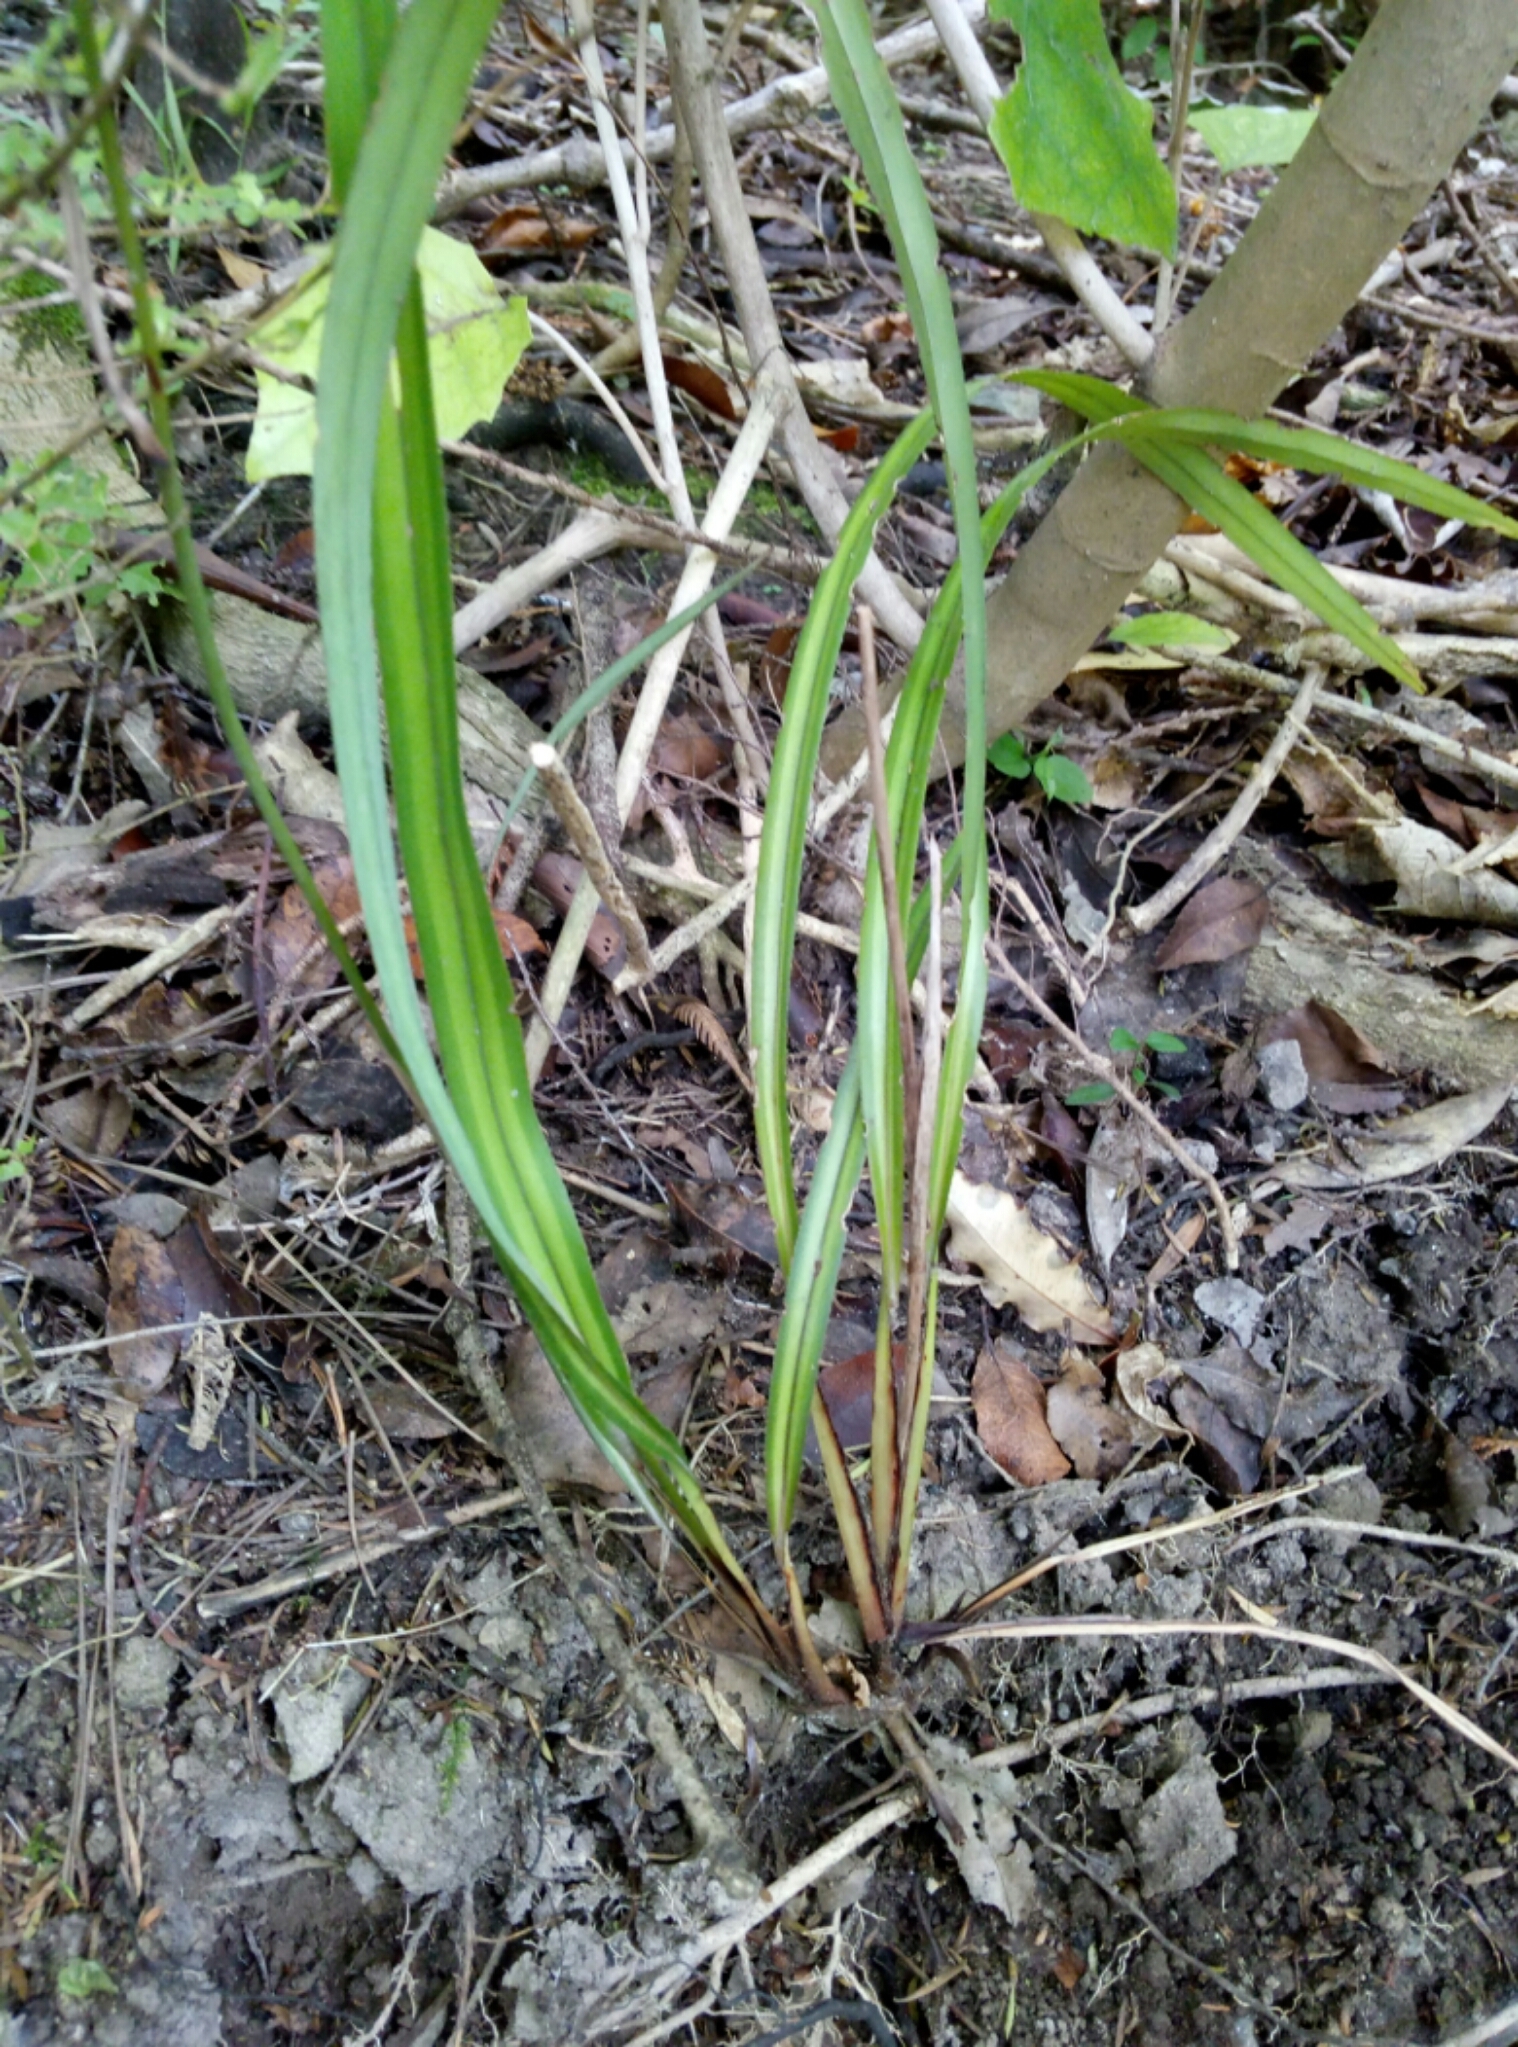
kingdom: Plantae
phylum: Tracheophyta
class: Liliopsida
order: Asparagales
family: Asphodelaceae
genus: Dianella
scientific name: Dianella nigra
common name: New zealand-blueberry
